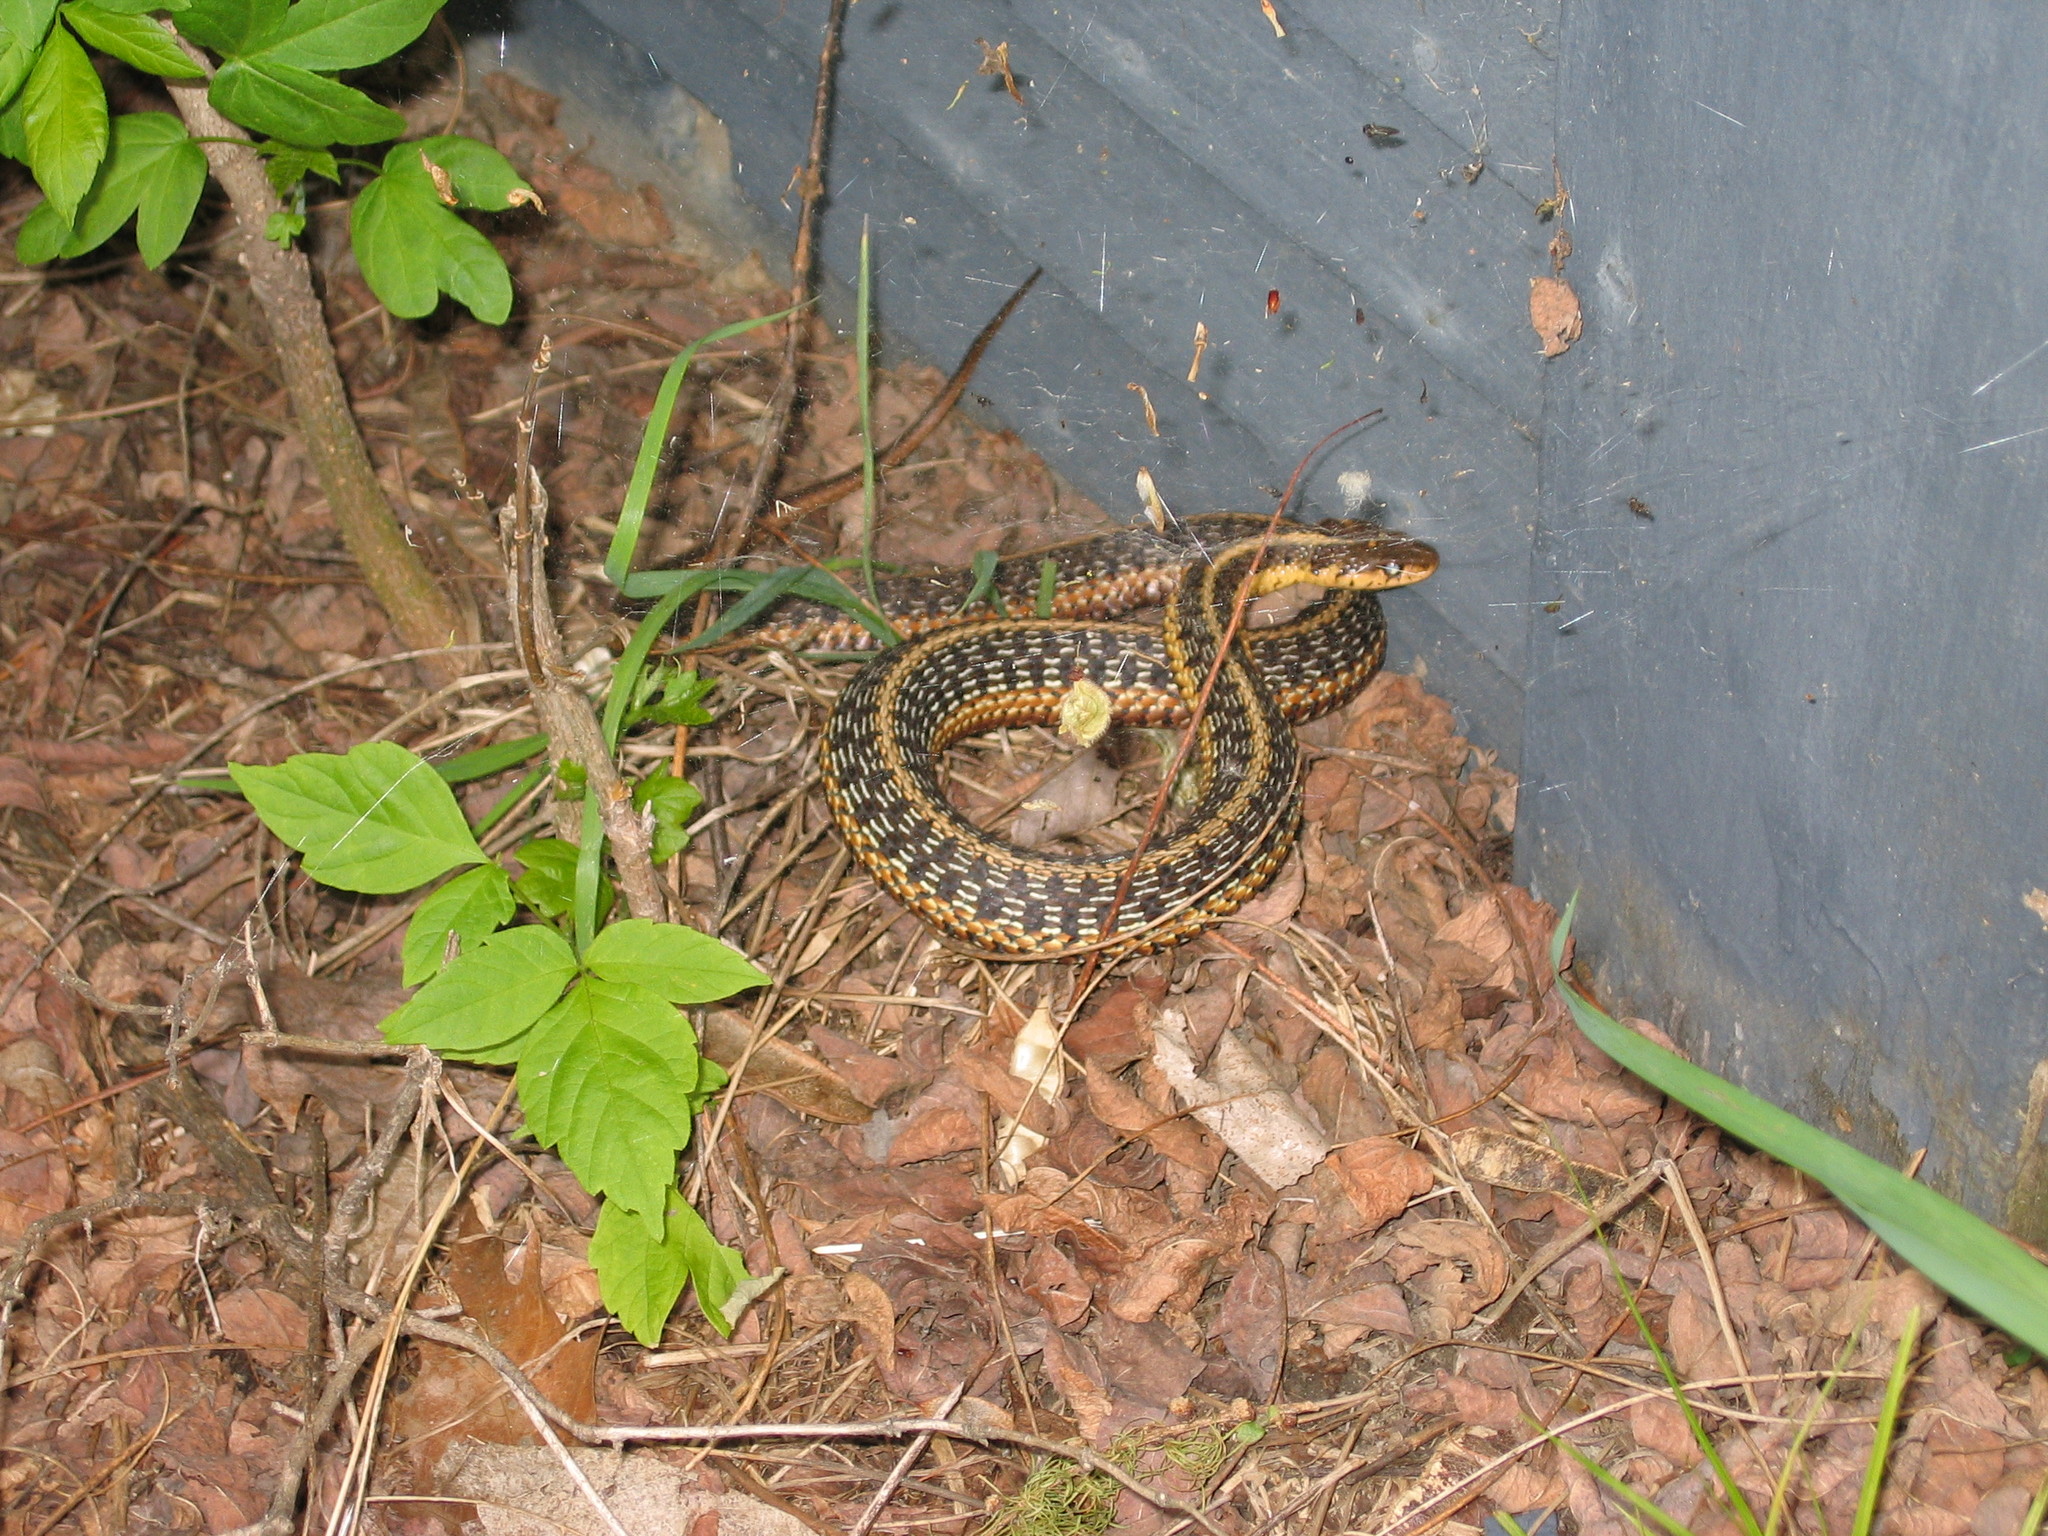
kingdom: Animalia
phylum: Chordata
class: Squamata
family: Colubridae
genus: Thamnophis
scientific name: Thamnophis sirtalis
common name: Common garter snake
